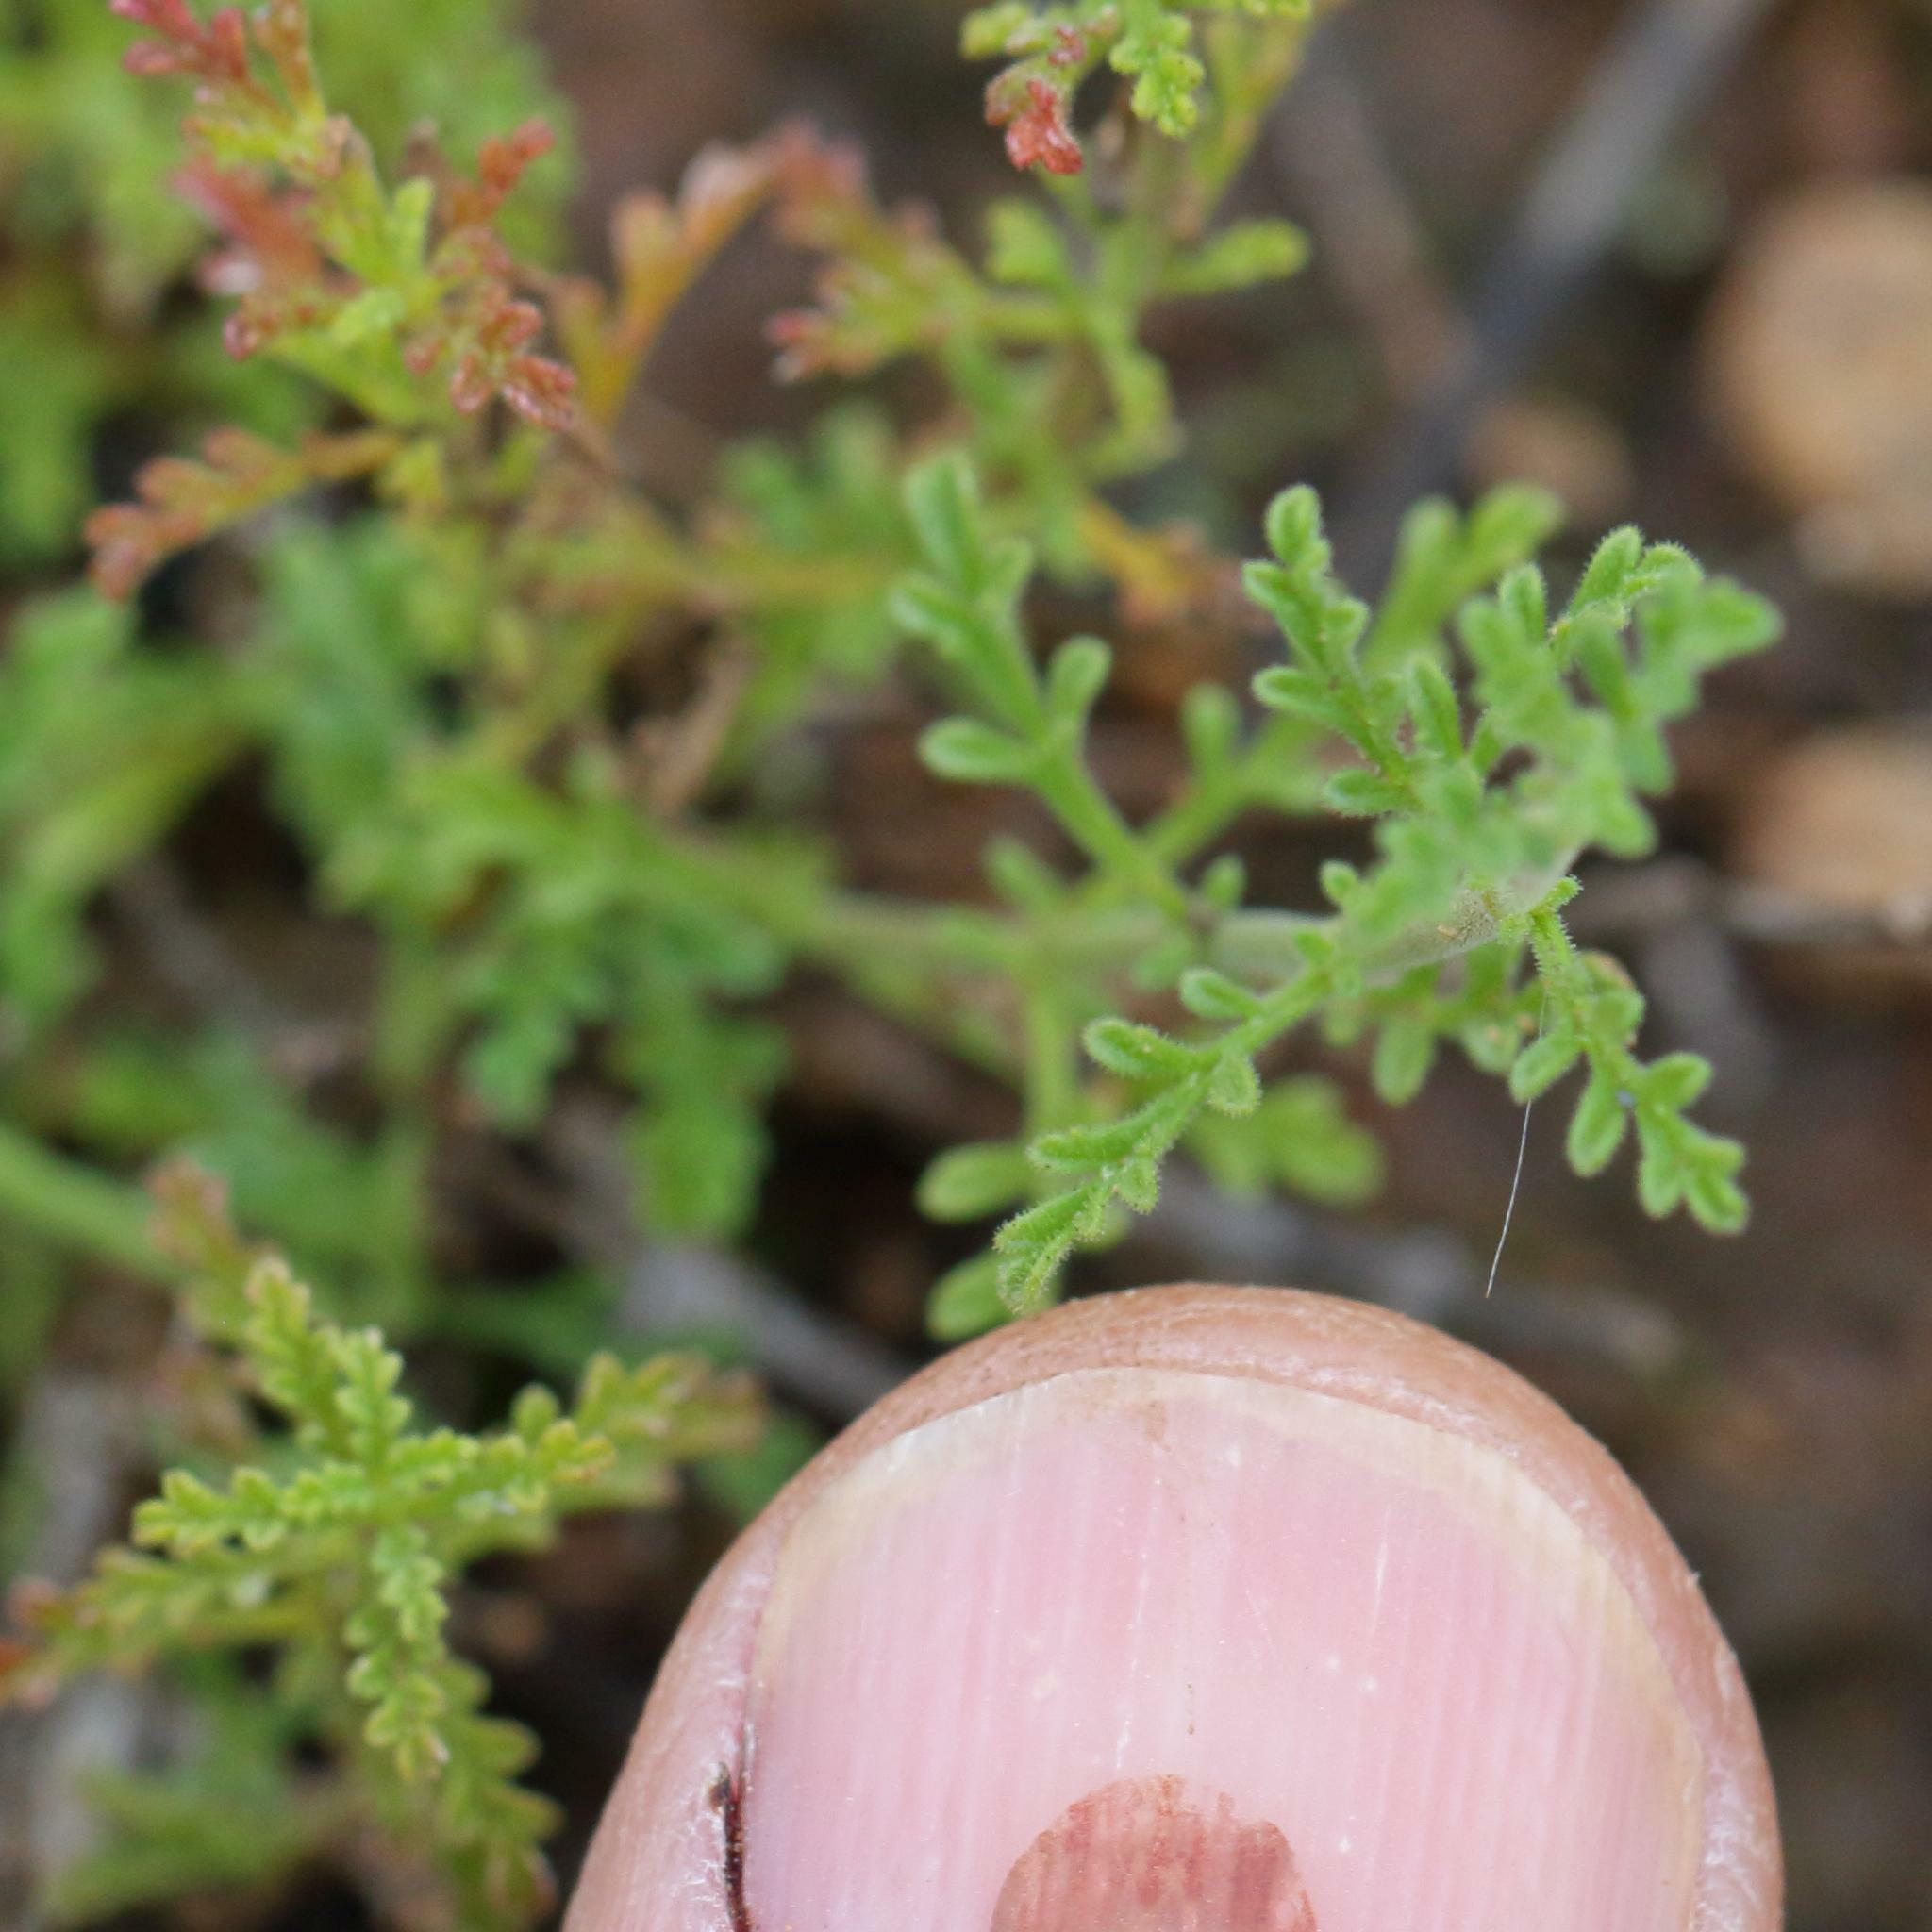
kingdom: Plantae
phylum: Tracheophyta
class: Magnoliopsida
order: Lamiales
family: Scrophulariaceae
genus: Jamesbrittenia
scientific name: Jamesbrittenia tysonii
